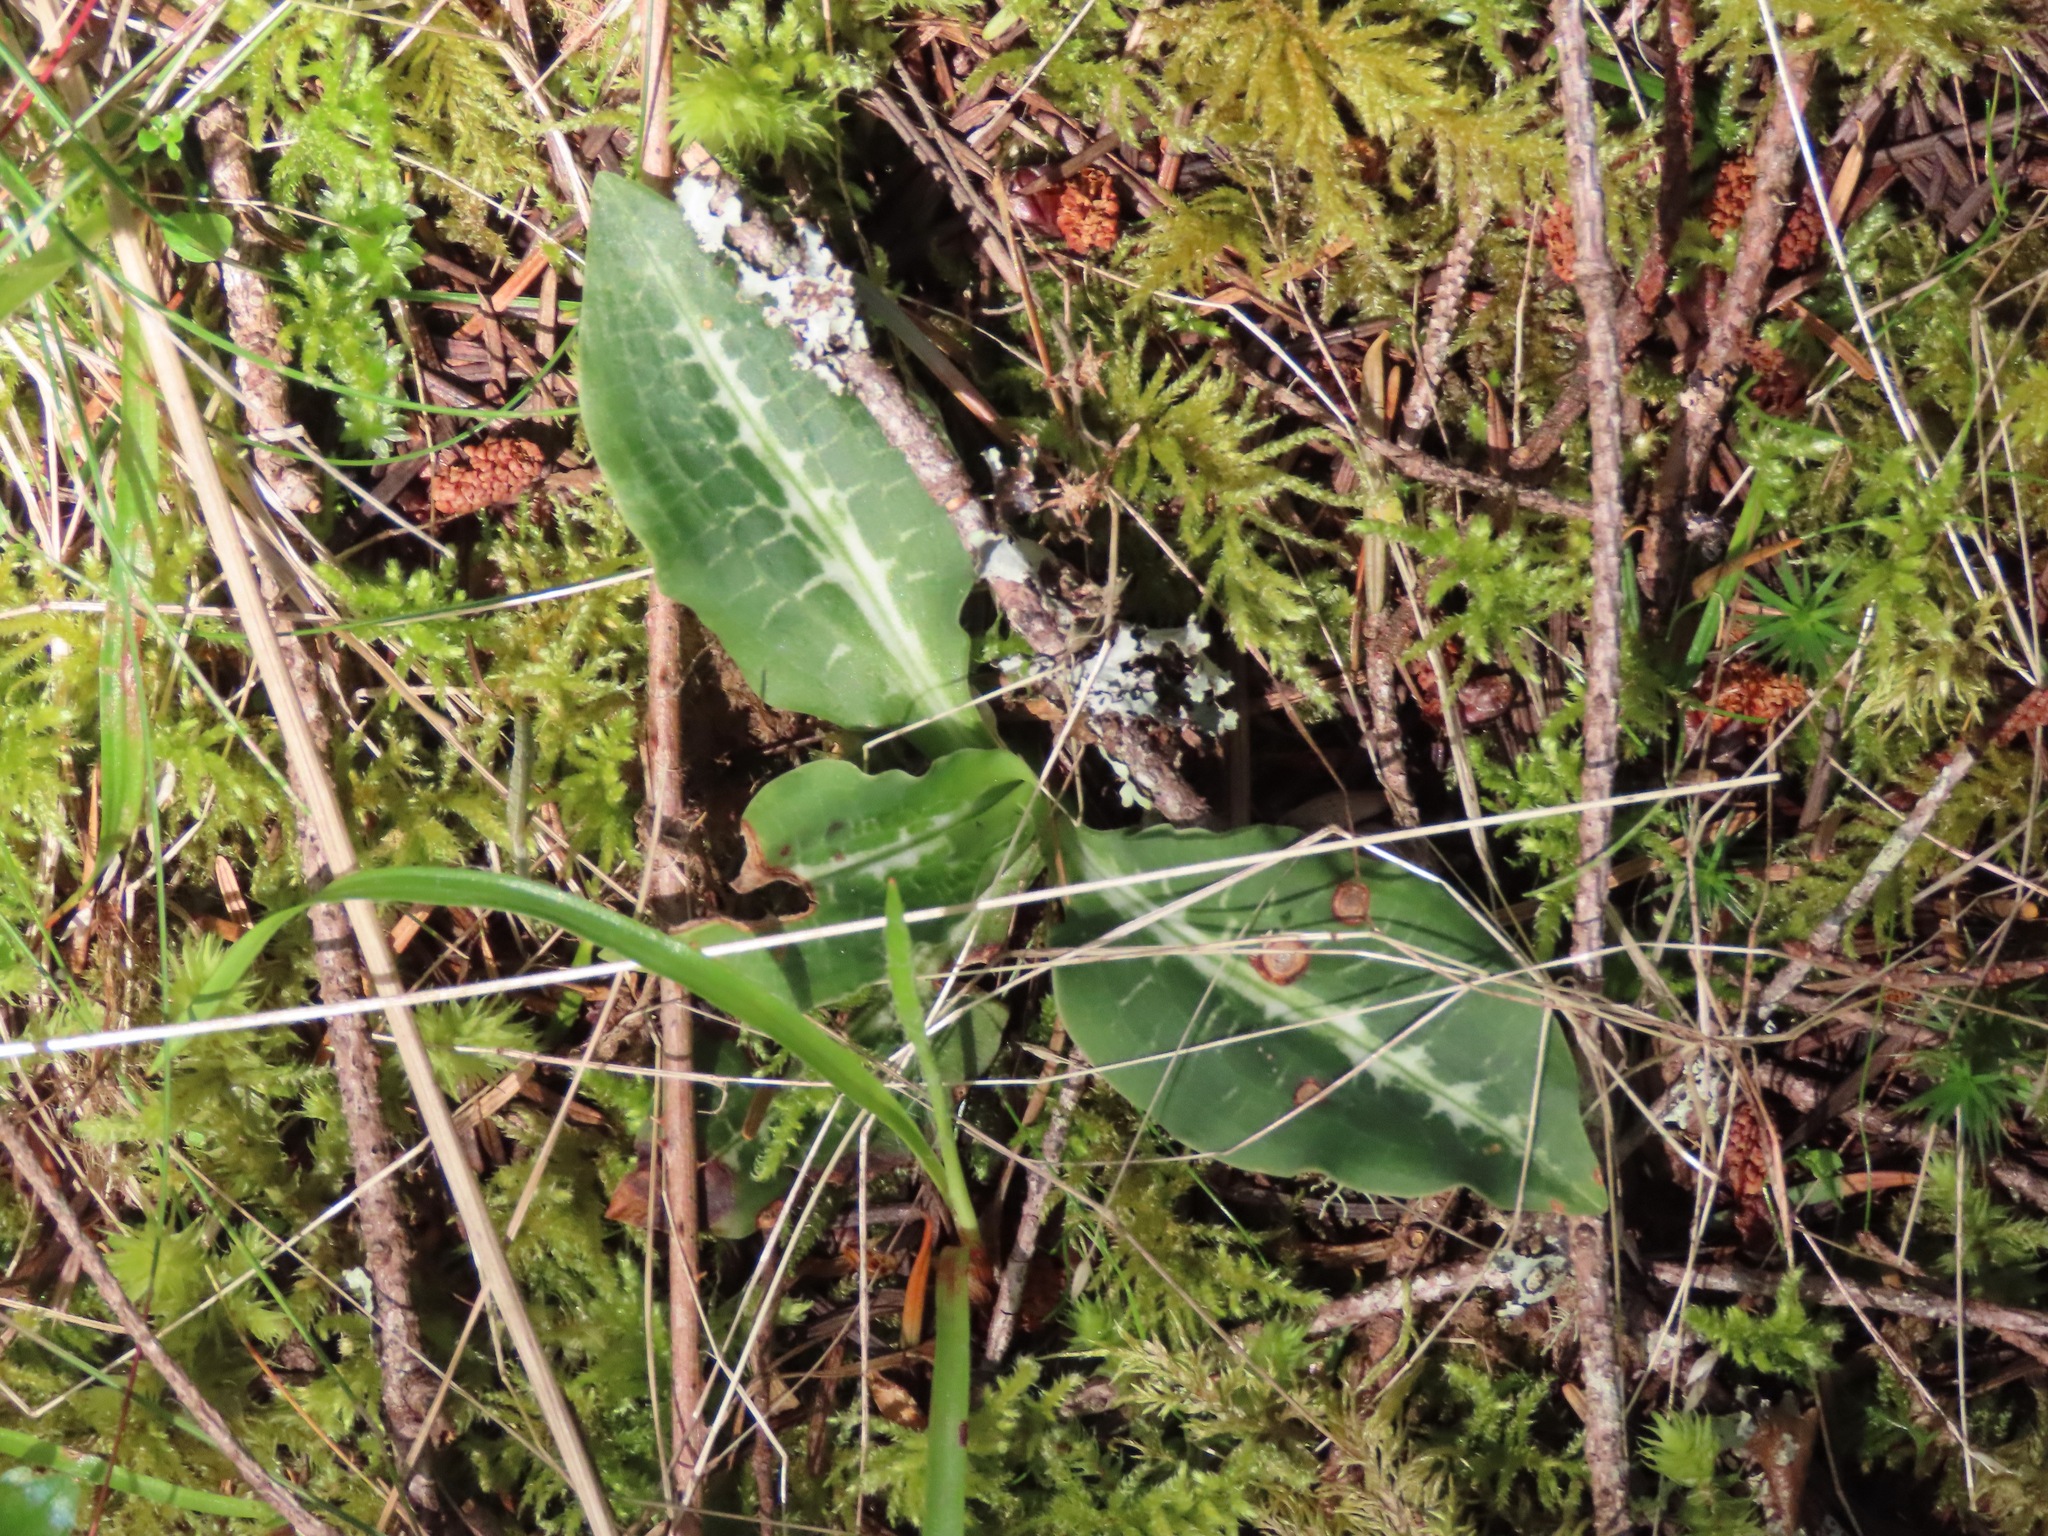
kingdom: Plantae
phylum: Tracheophyta
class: Liliopsida
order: Asparagales
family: Orchidaceae
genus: Goodyera
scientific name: Goodyera oblongifolia
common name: Giant rattlesnake-plantain
